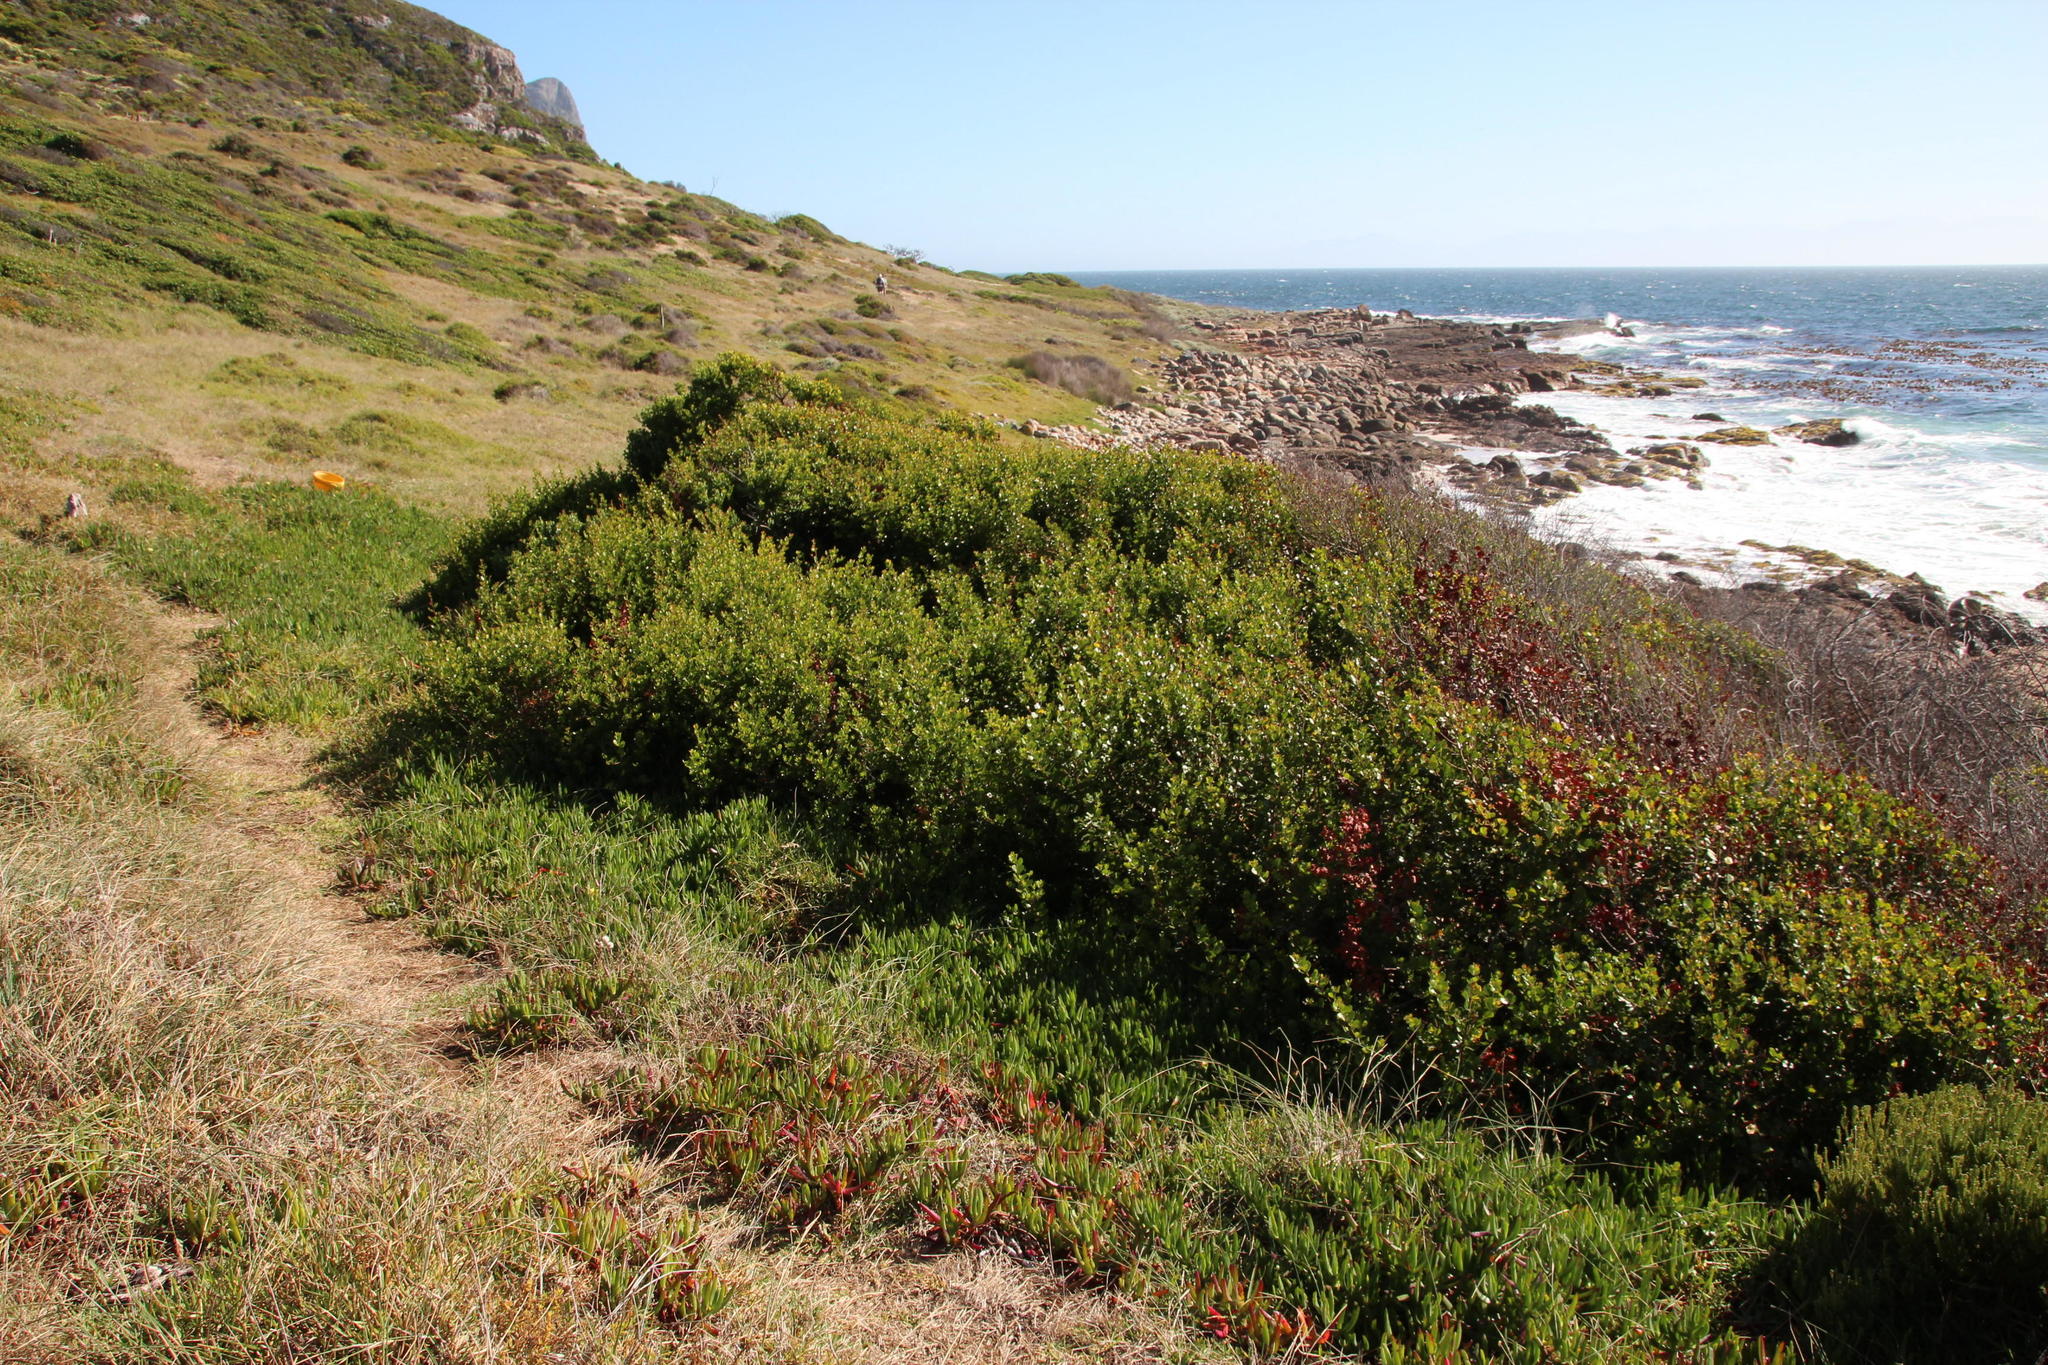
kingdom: Plantae
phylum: Tracheophyta
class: Magnoliopsida
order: Sapindales
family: Anacardiaceae
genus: Searsia
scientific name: Searsia lucida
